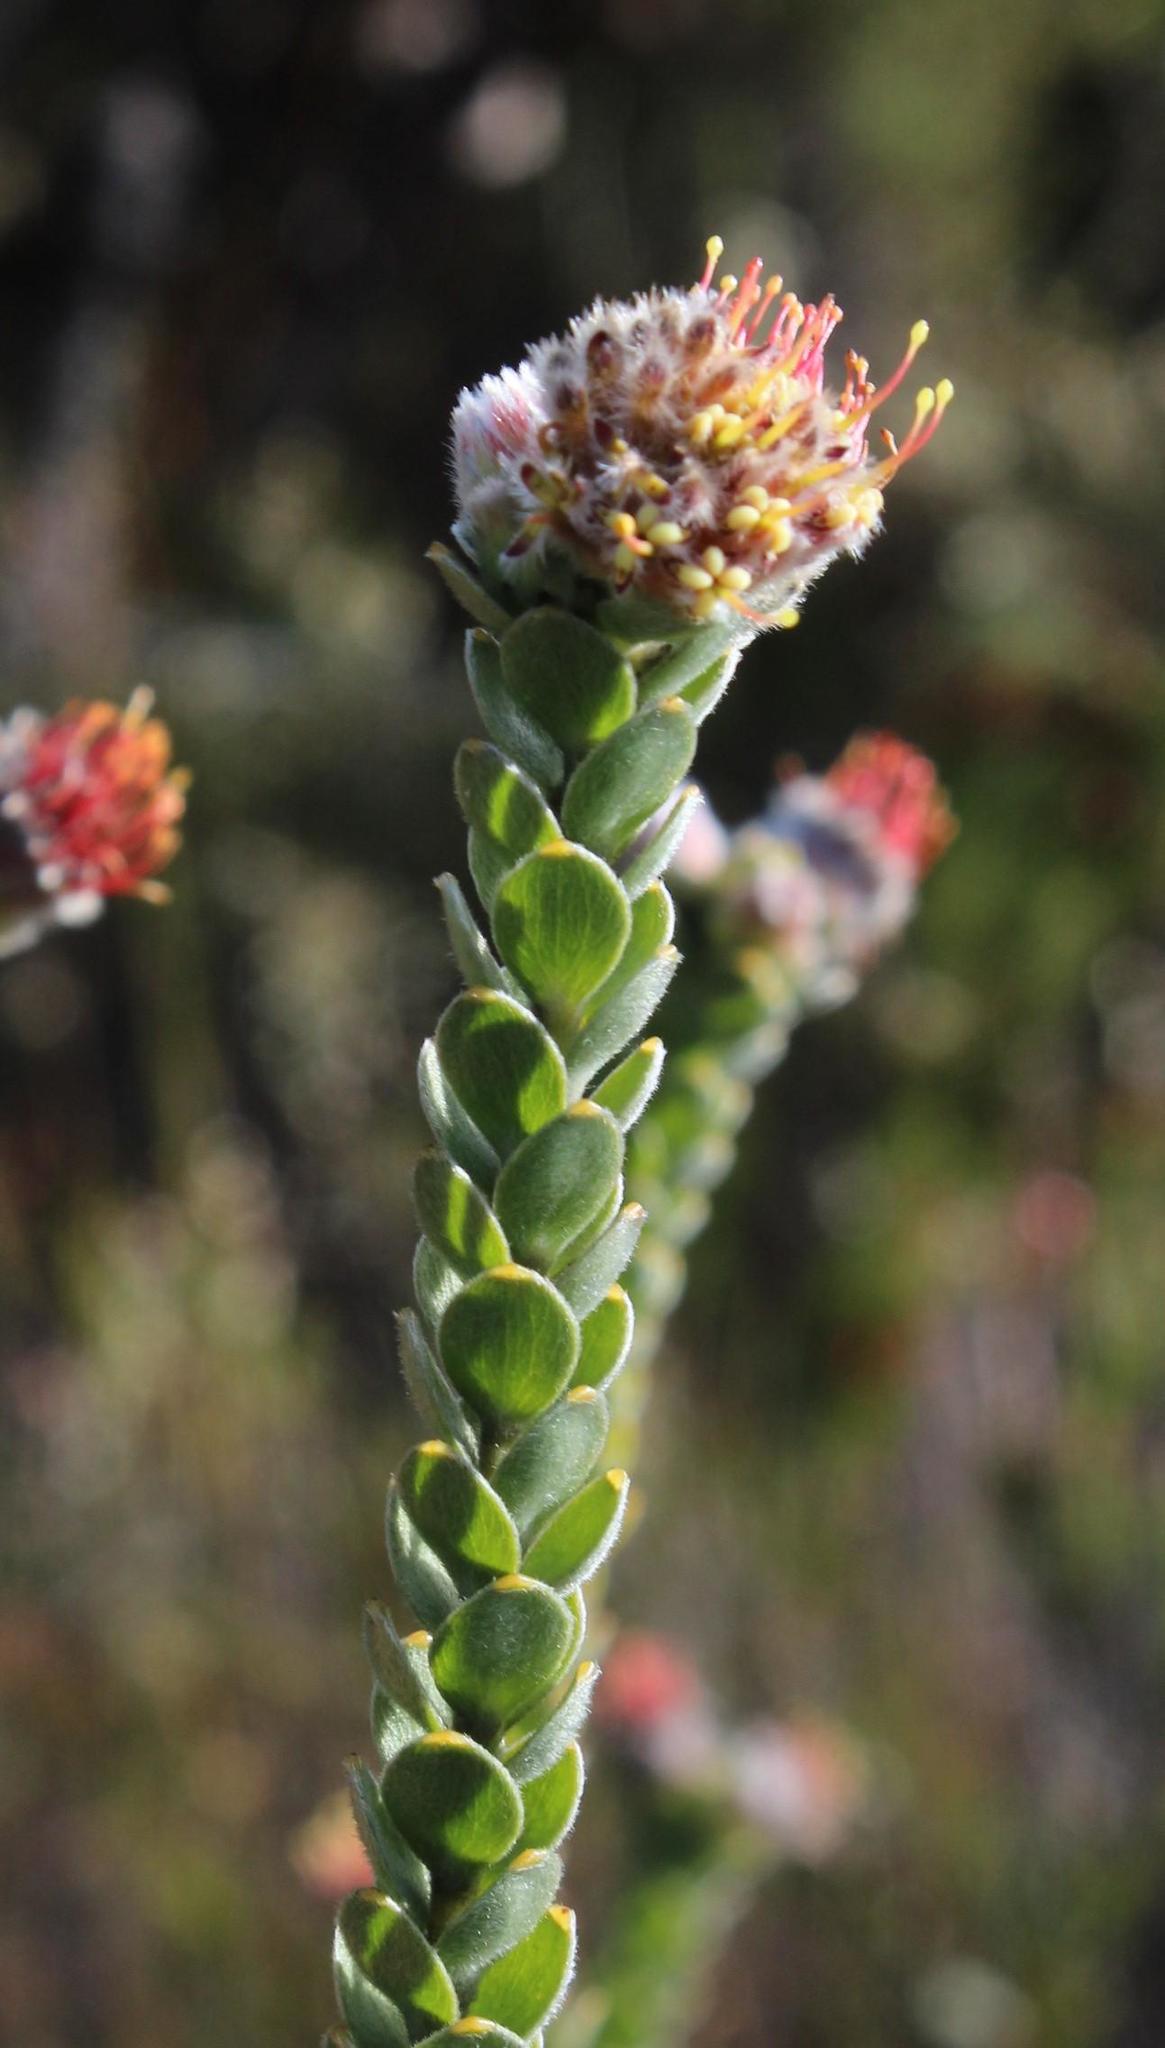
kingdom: Plantae
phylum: Tracheophyta
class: Magnoliopsida
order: Proteales
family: Proteaceae
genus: Leucospermum
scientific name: Leucospermum truncatulum
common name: Oval-leaf pincushion
